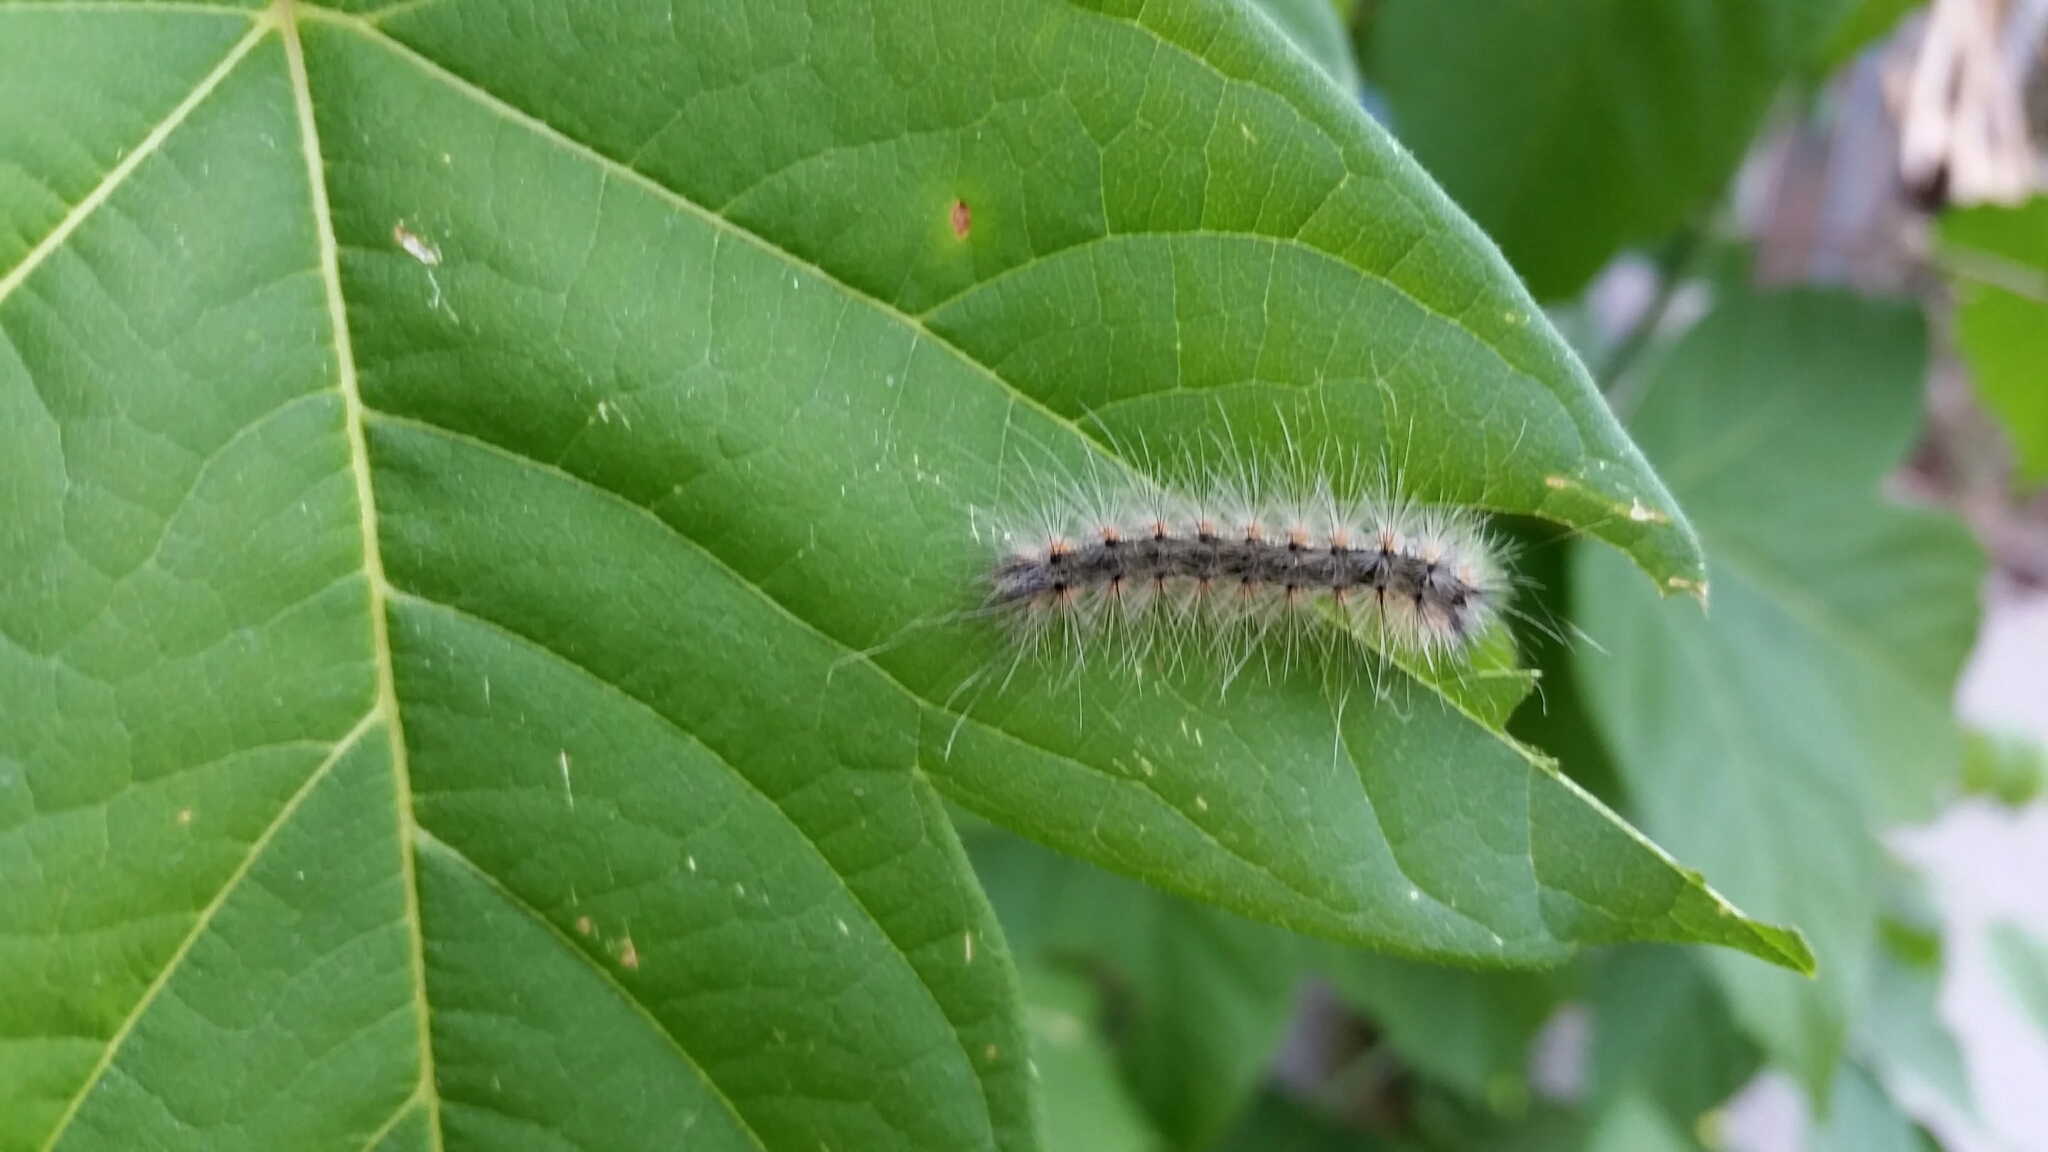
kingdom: Animalia
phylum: Arthropoda
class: Insecta
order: Lepidoptera
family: Erebidae
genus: Hyphantria
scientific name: Hyphantria cunea
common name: American white moth
